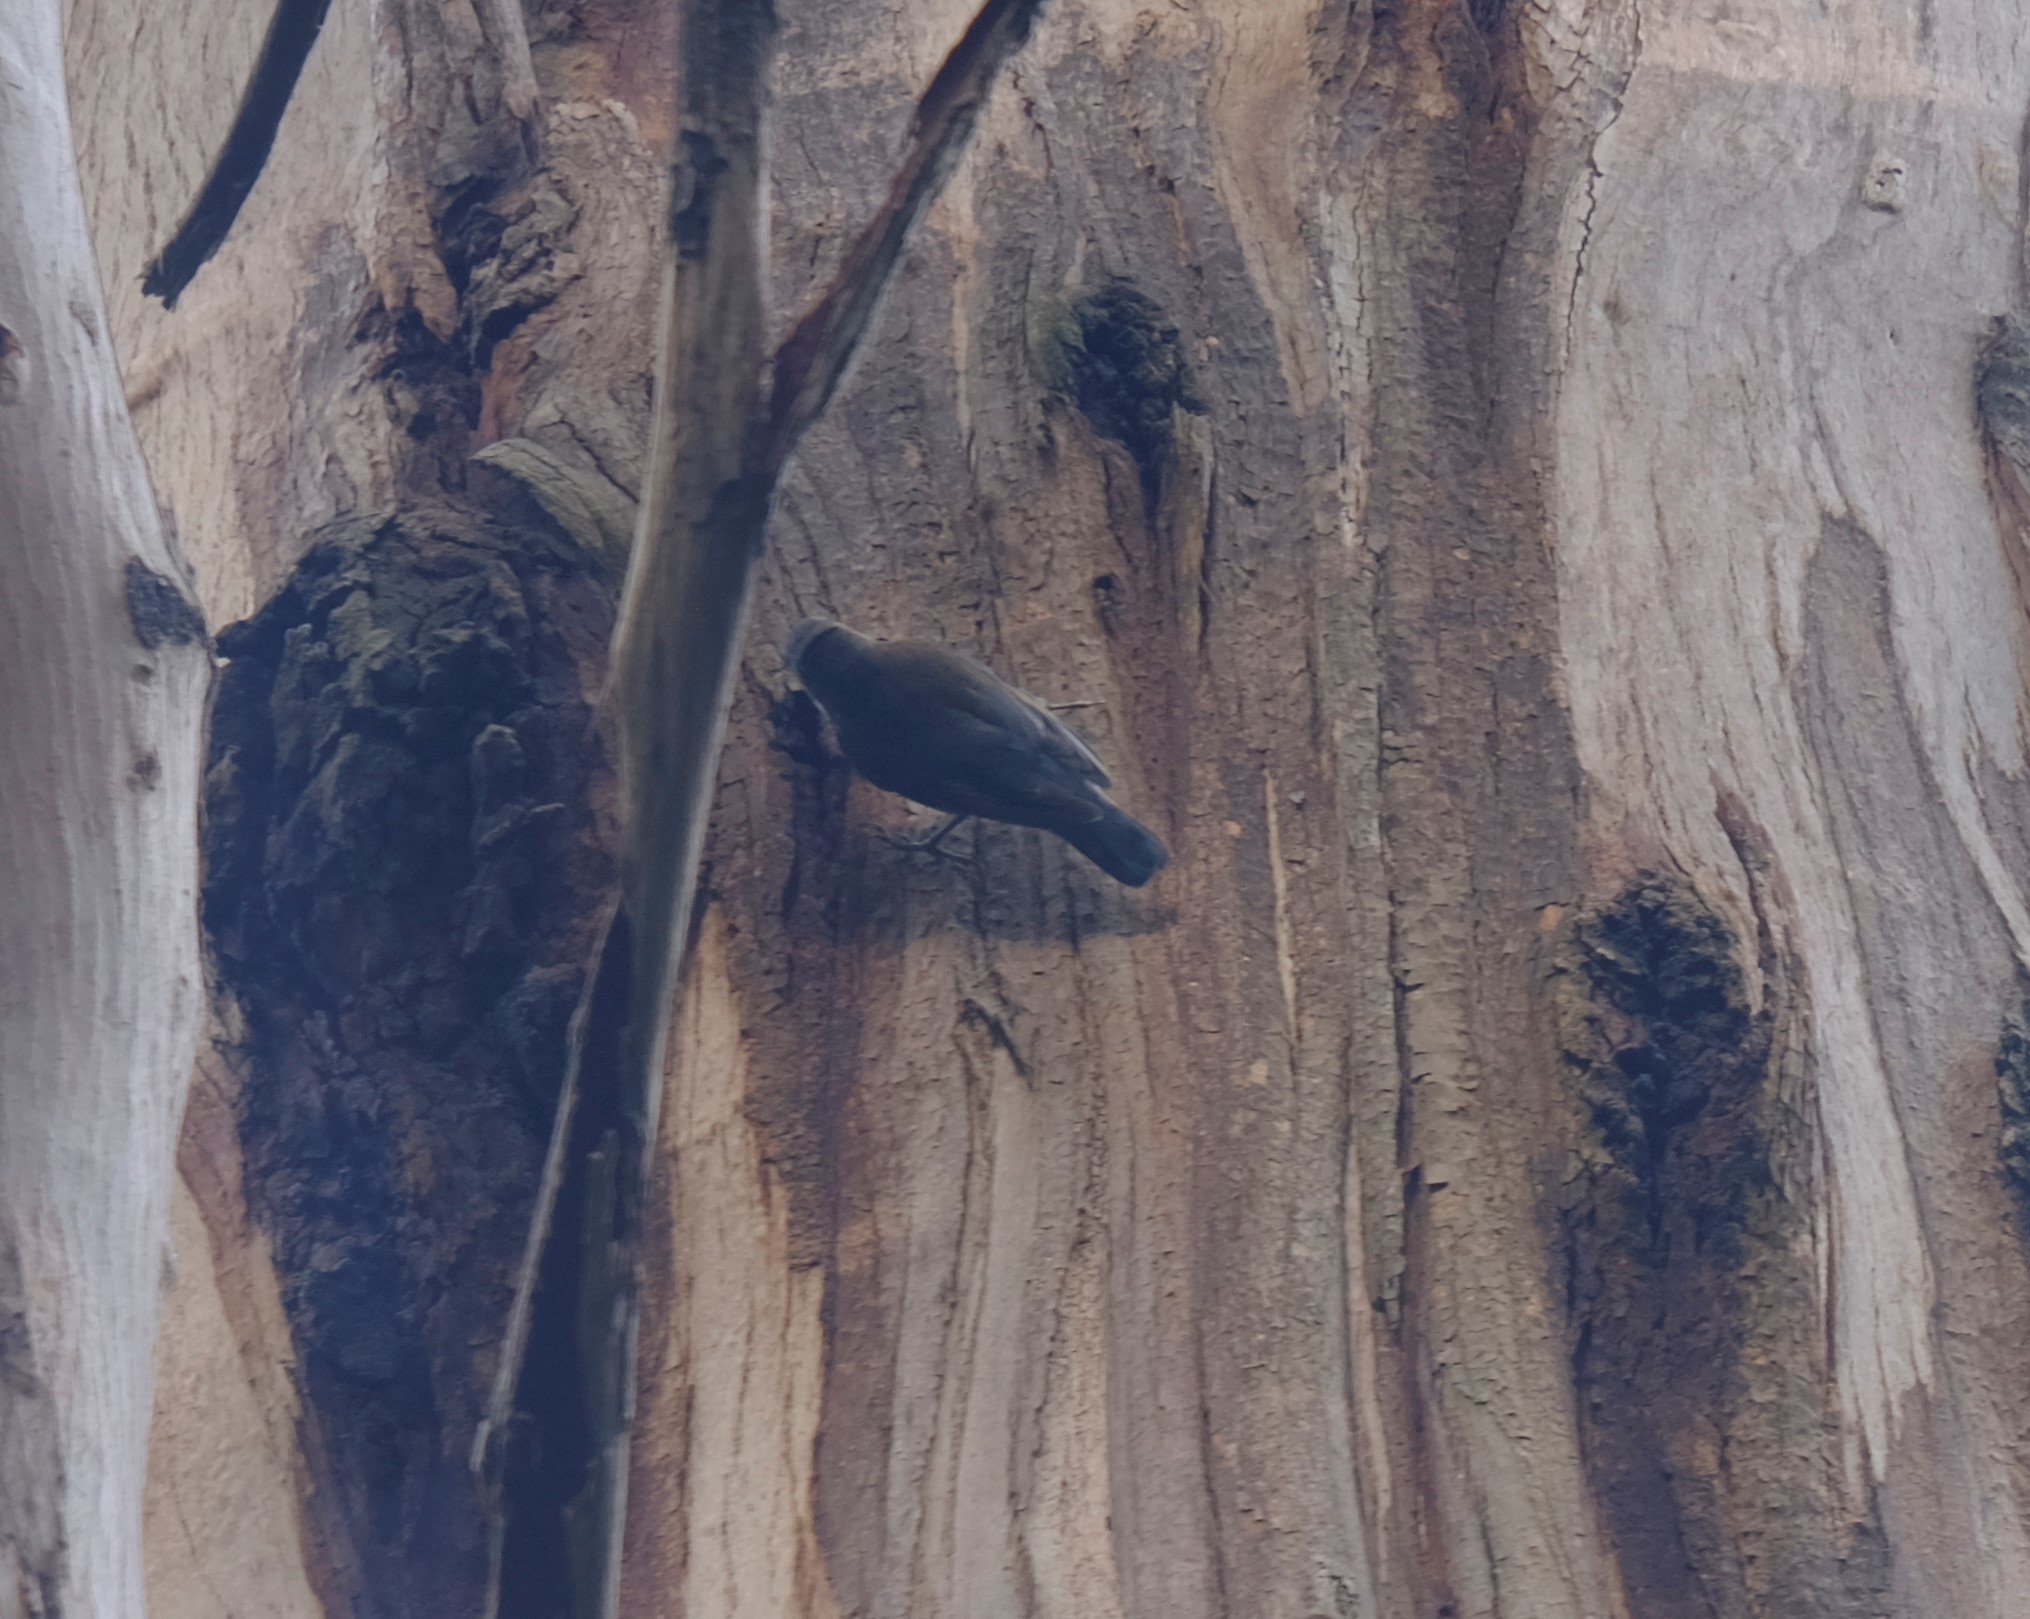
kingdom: Animalia
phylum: Chordata
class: Aves
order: Passeriformes
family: Climacteridae
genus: Cormobates
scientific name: Cormobates leucophaea
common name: White-throated treecreeper
